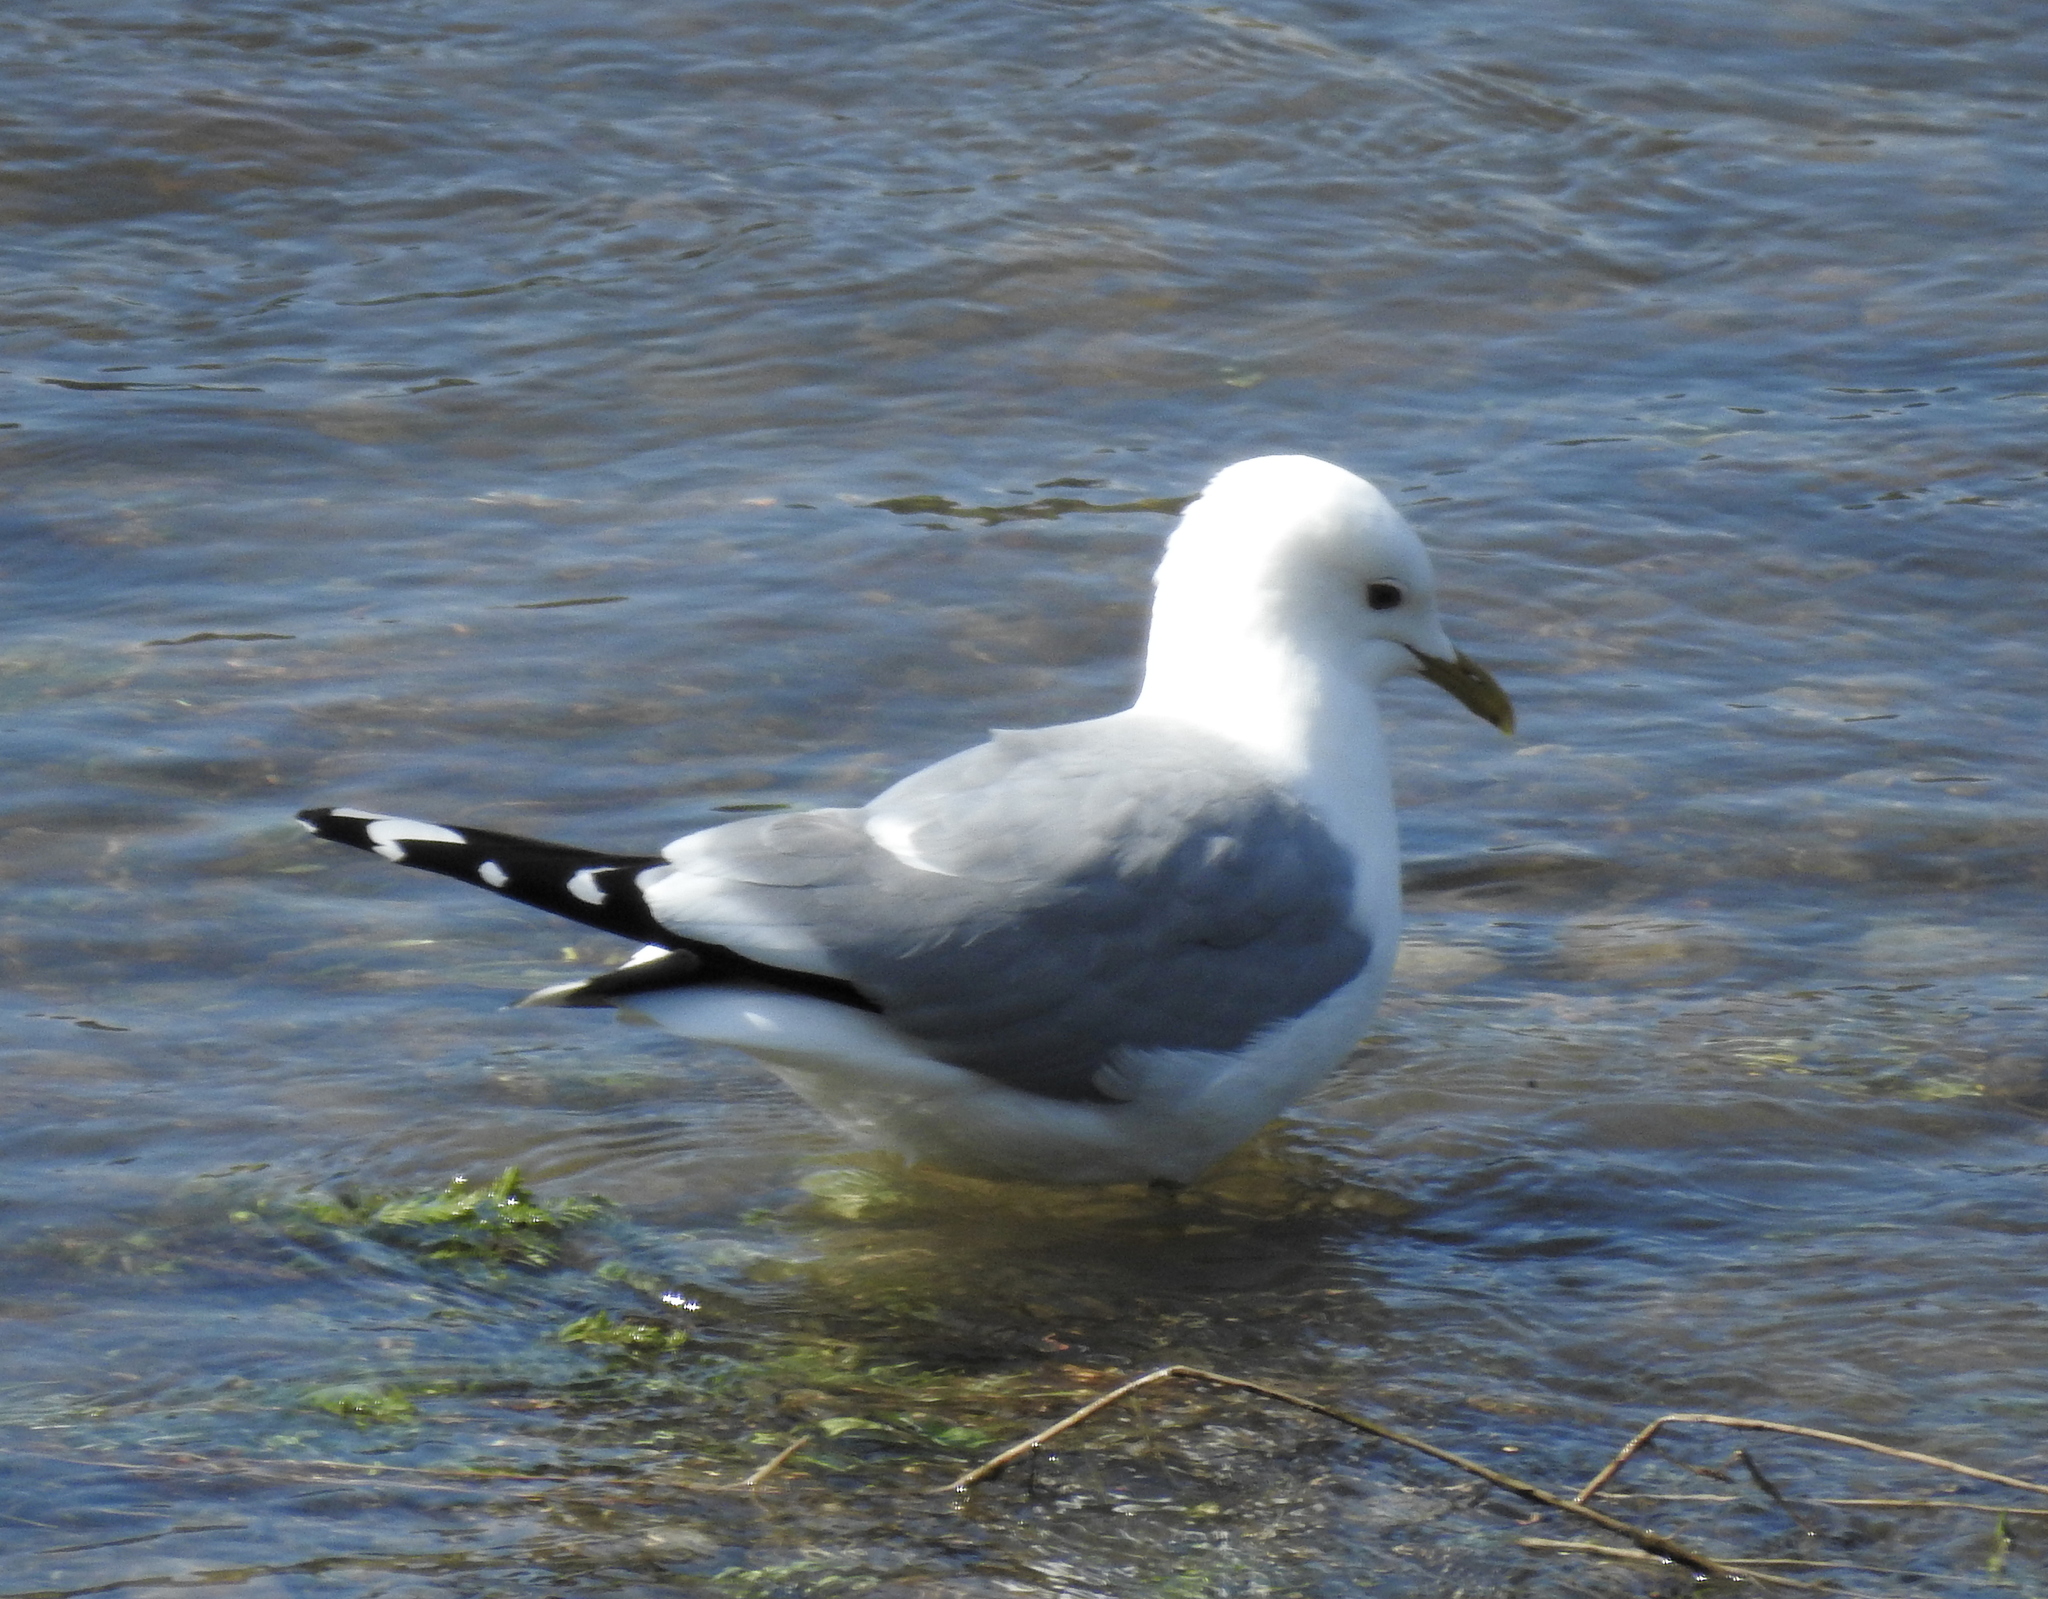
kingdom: Animalia
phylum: Chordata
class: Aves
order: Charadriiformes
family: Laridae
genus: Larus
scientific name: Larus canus
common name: Mew gull
